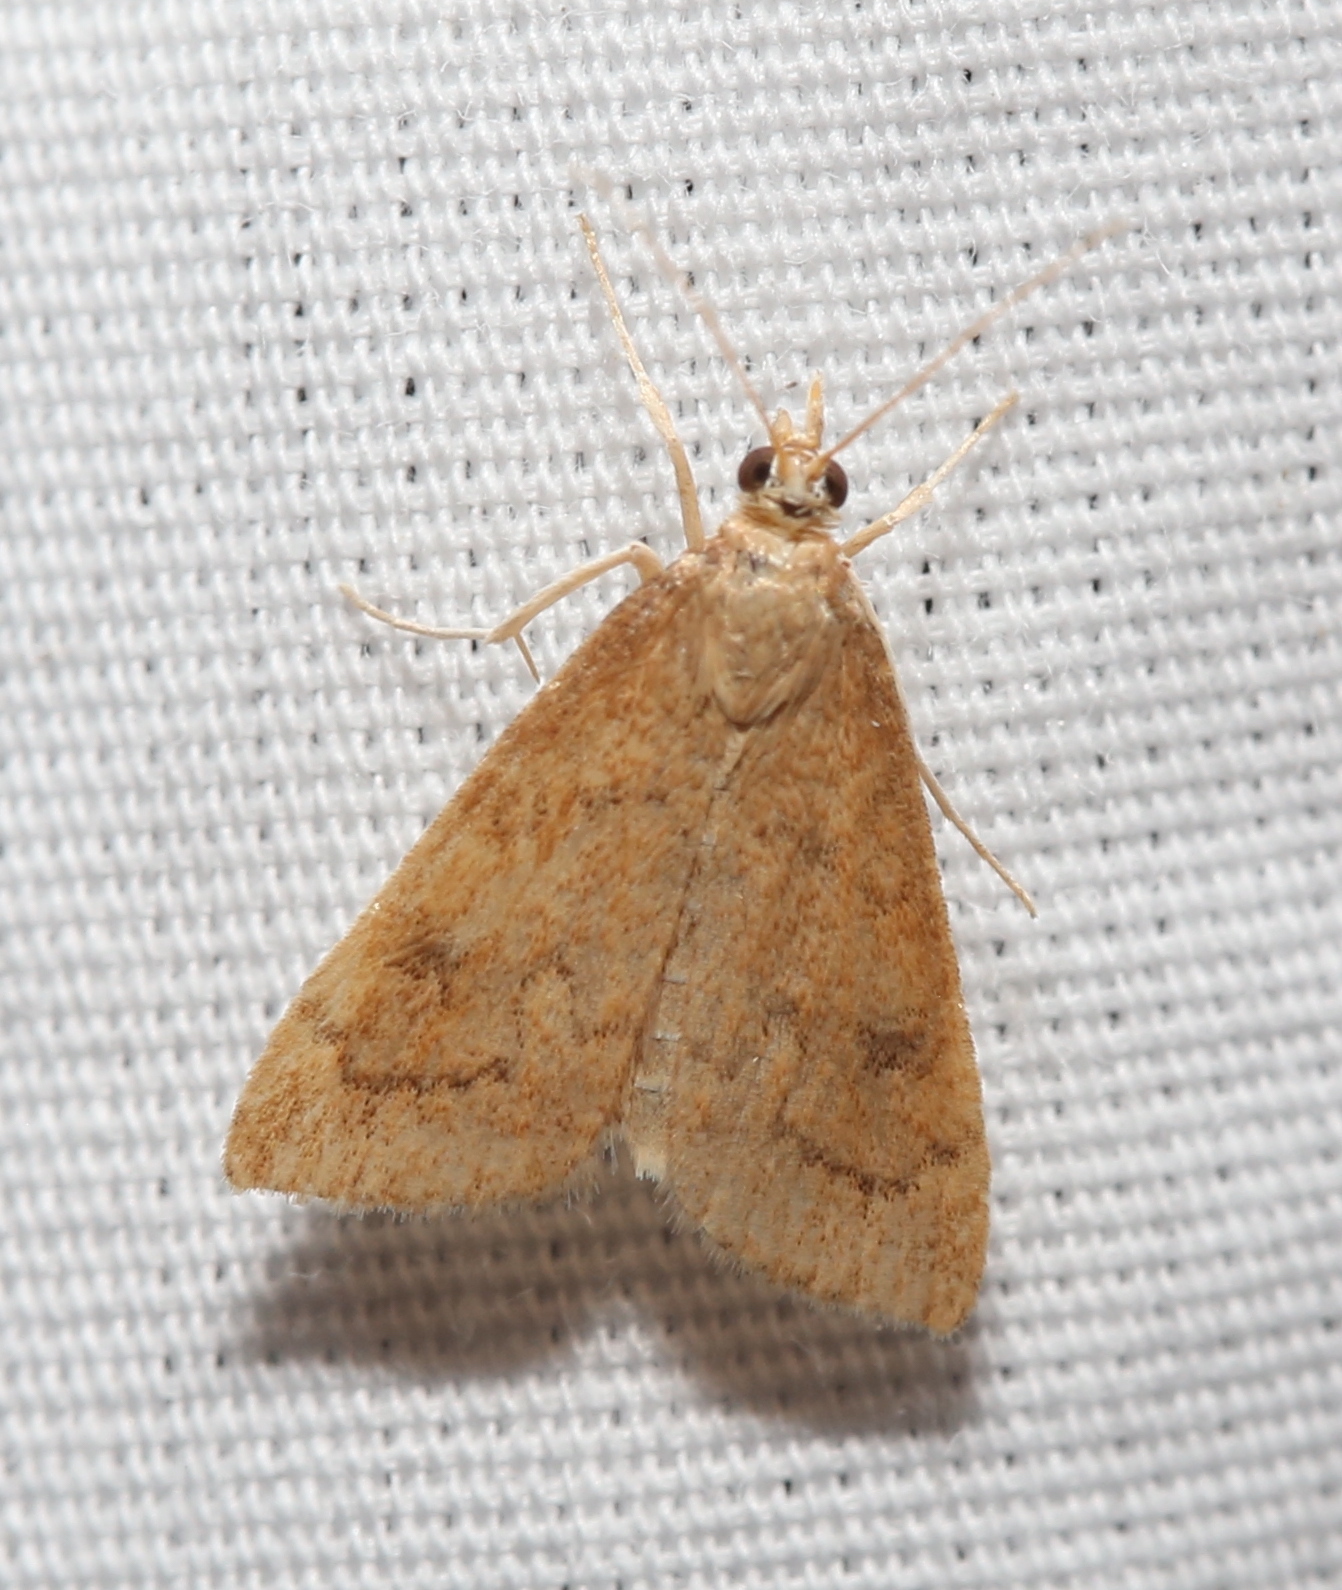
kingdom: Animalia
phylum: Arthropoda
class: Insecta
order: Lepidoptera
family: Crambidae
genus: Udea
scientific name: Udea rubigalis
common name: Celery leaftier moth
